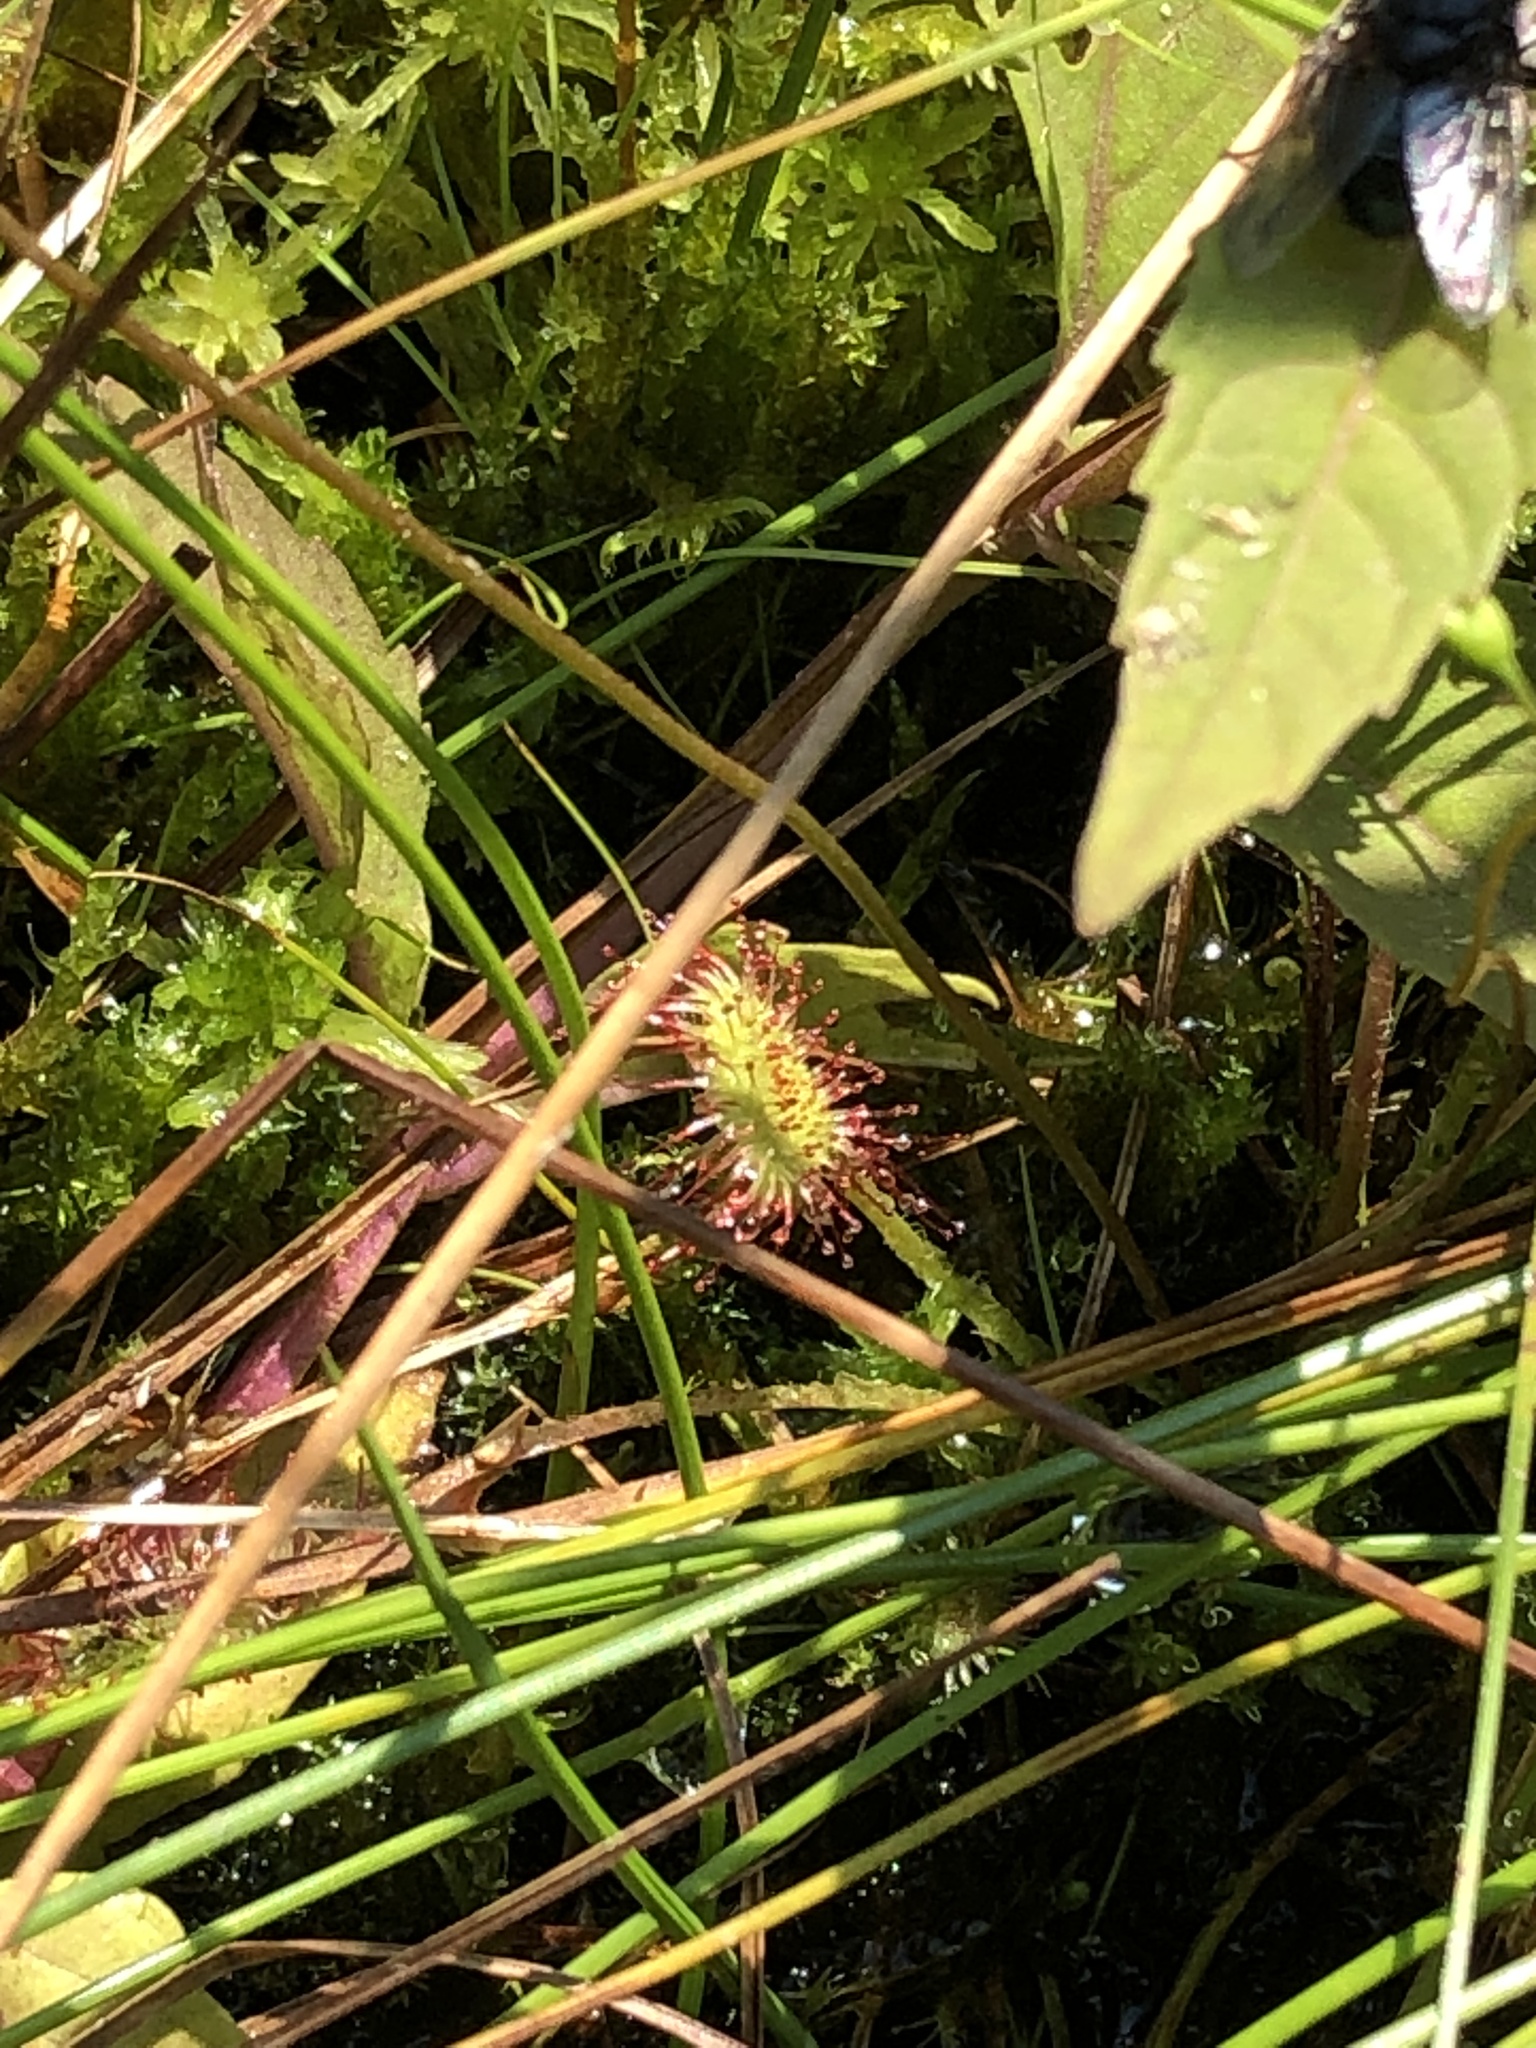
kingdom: Plantae
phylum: Tracheophyta
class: Magnoliopsida
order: Caryophyllales
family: Droseraceae
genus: Drosera
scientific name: Drosera rotundifolia
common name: Round-leaved sundew
